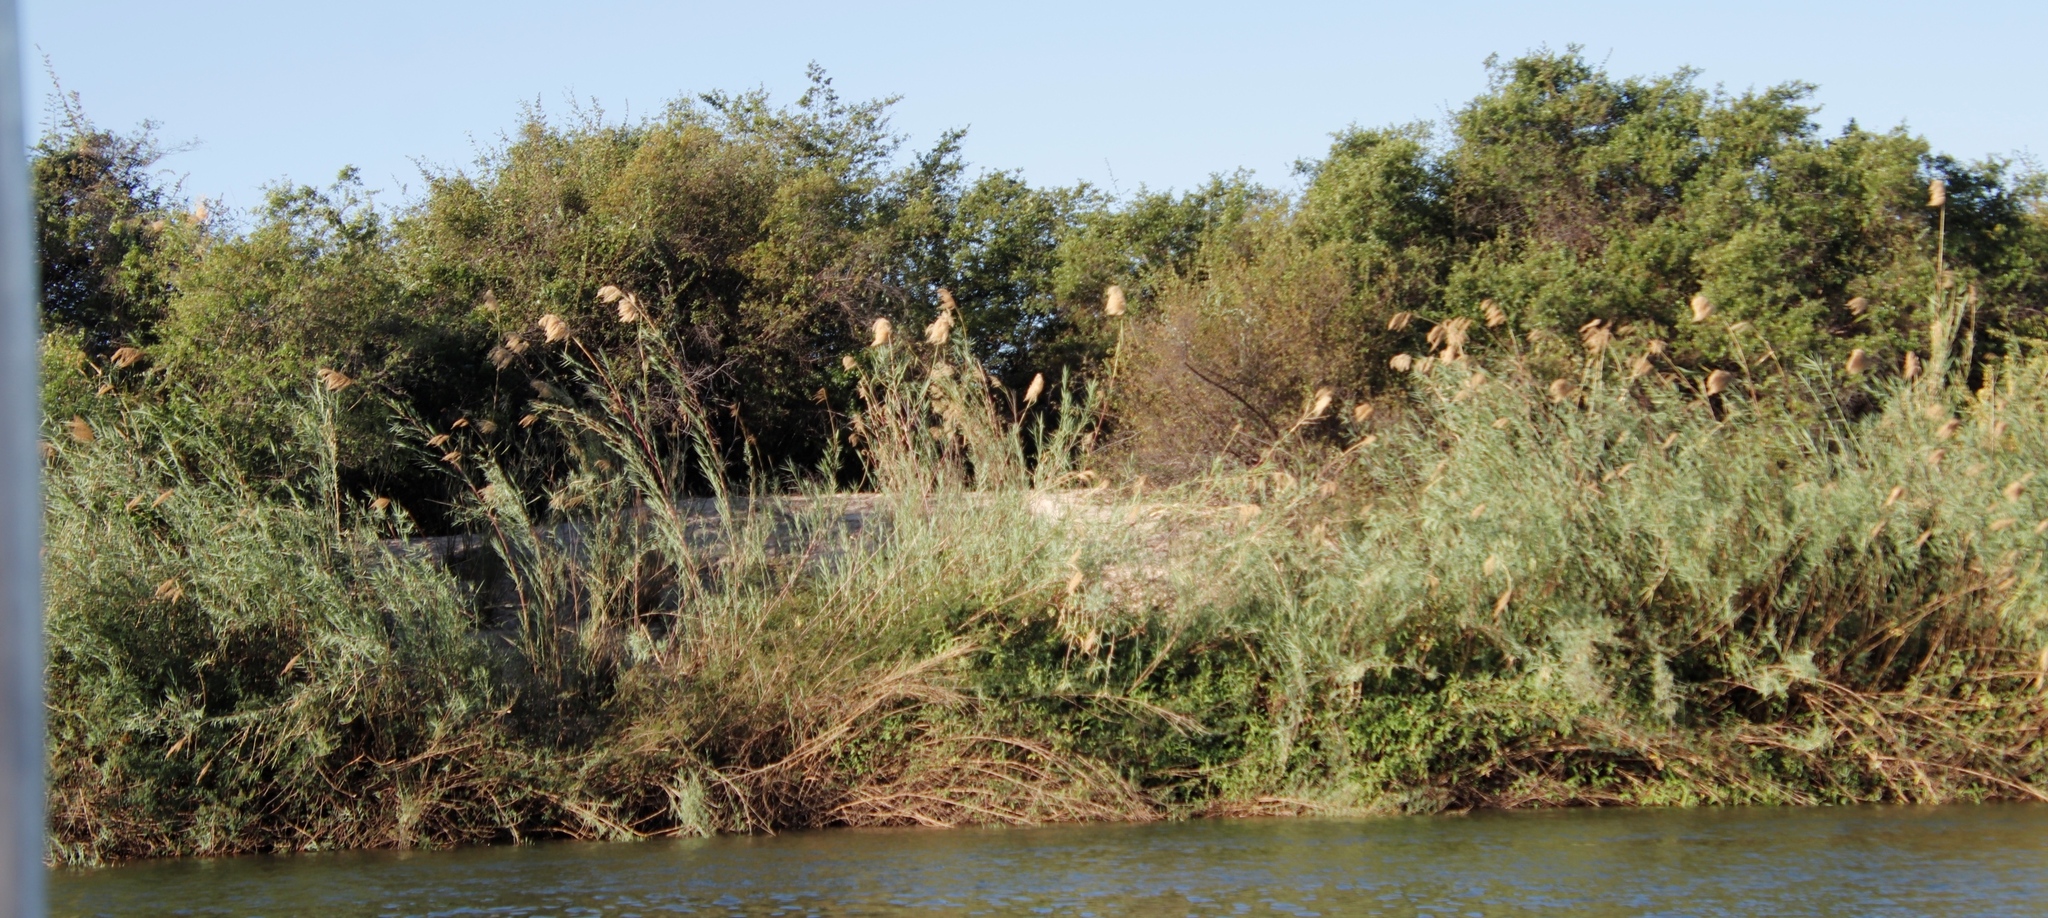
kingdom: Plantae
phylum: Tracheophyta
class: Liliopsida
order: Poales
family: Poaceae
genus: Phragmites
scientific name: Phragmites australis
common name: Common reed
